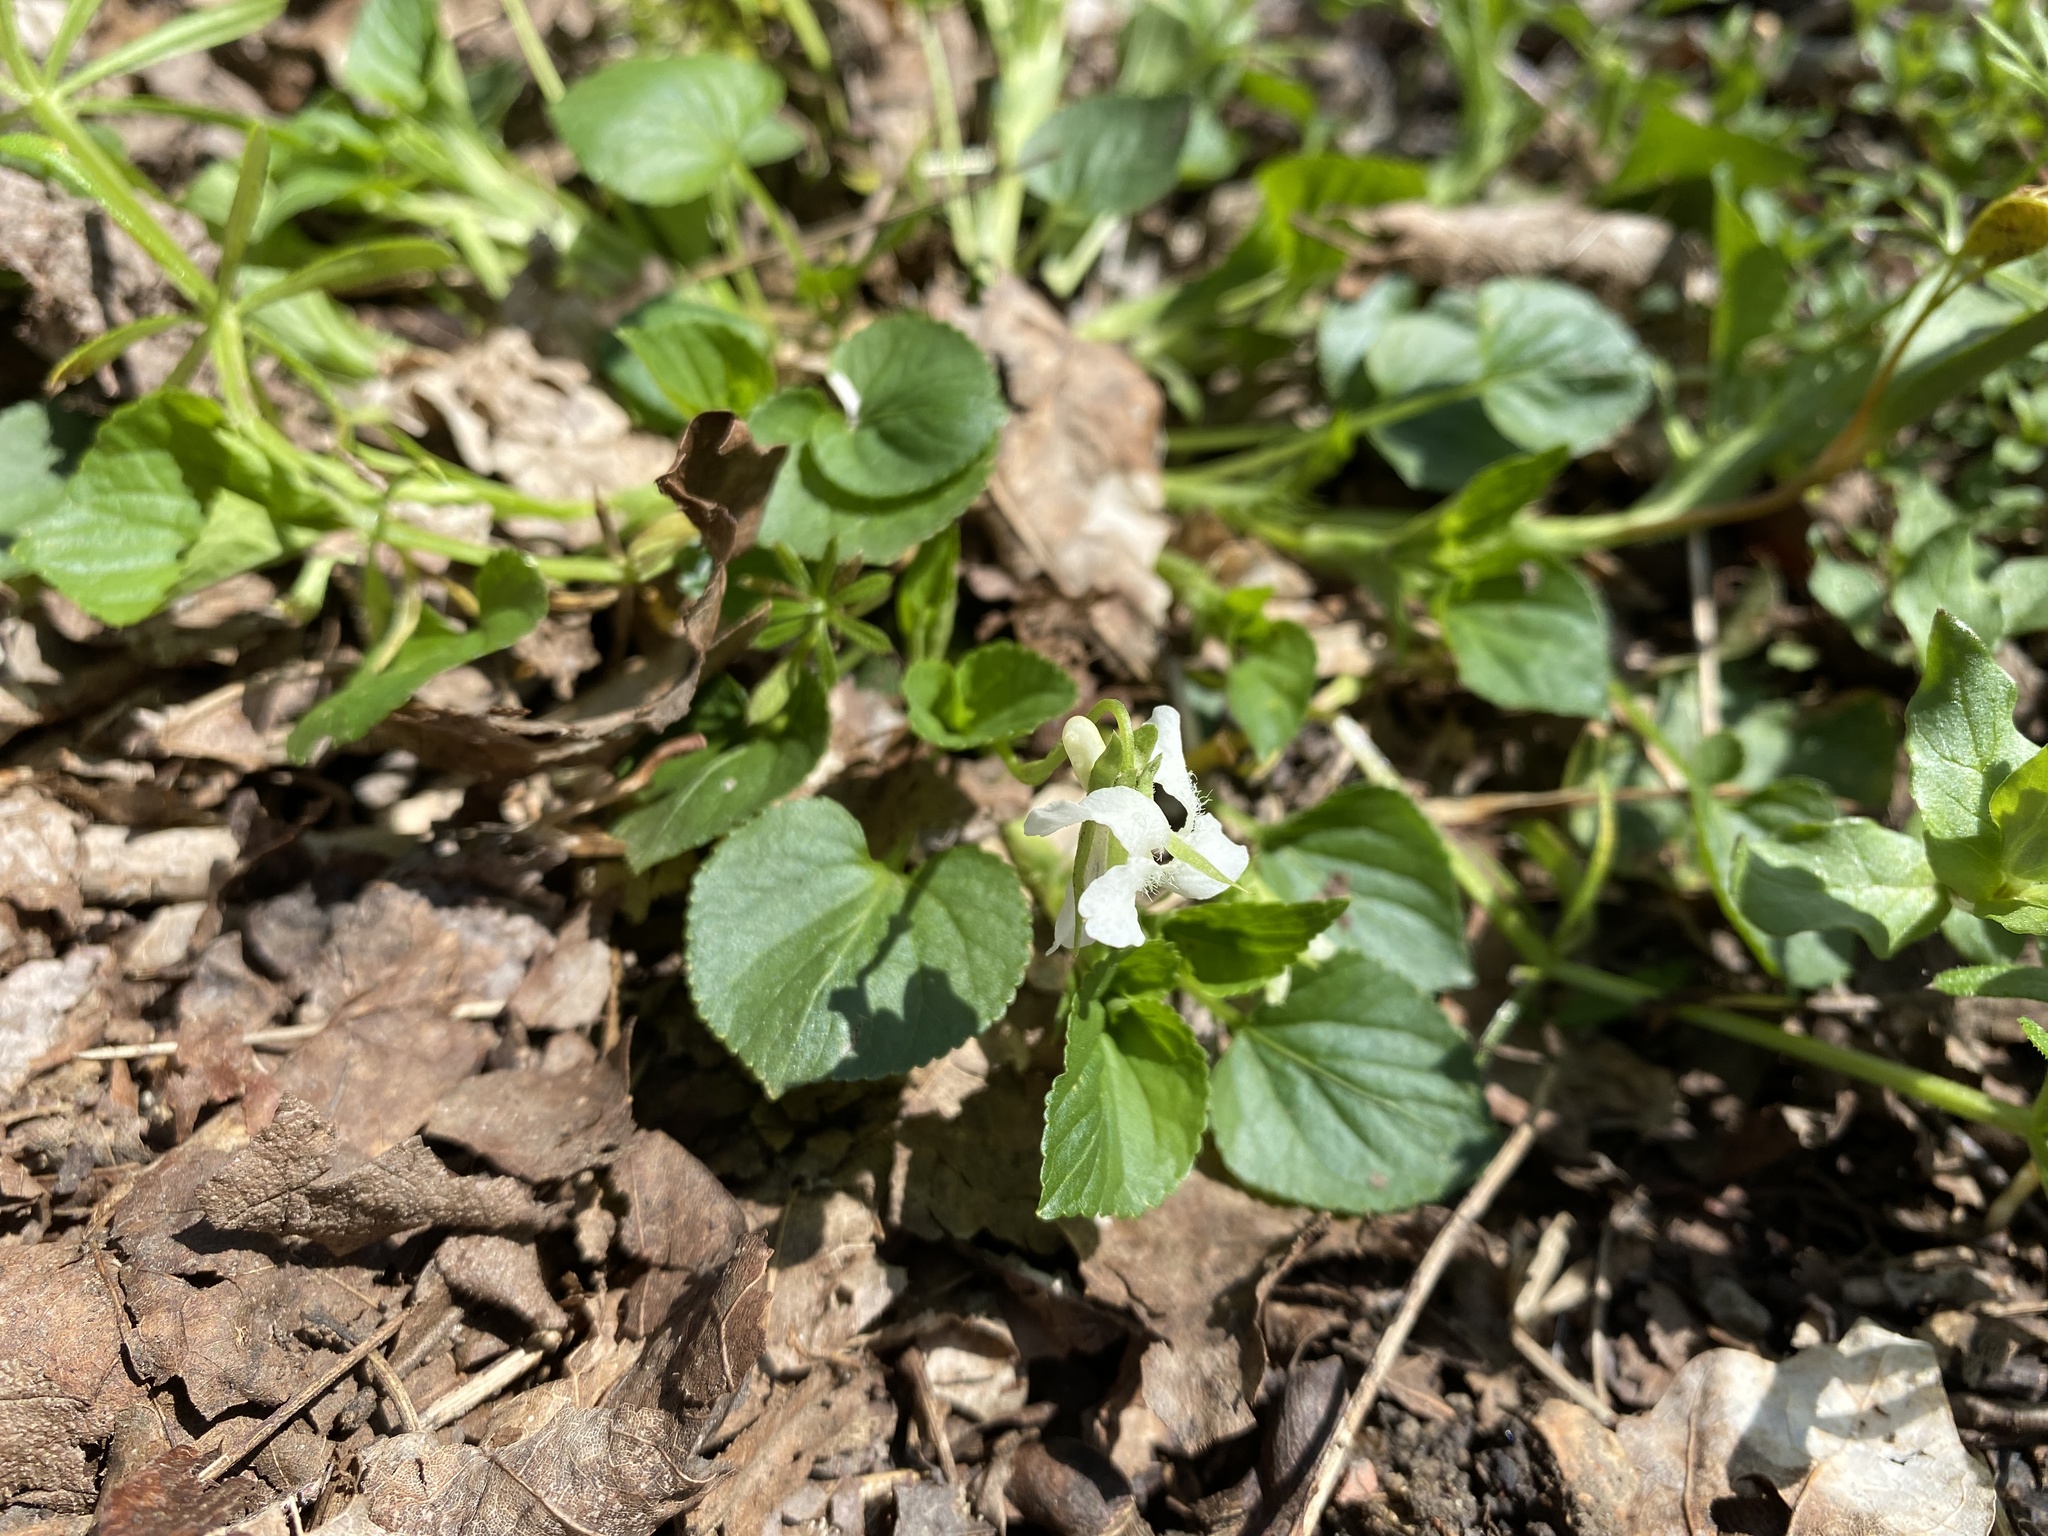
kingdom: Plantae
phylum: Tracheophyta
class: Magnoliopsida
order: Malpighiales
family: Violaceae
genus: Viola
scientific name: Viola striata
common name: Cream violet
